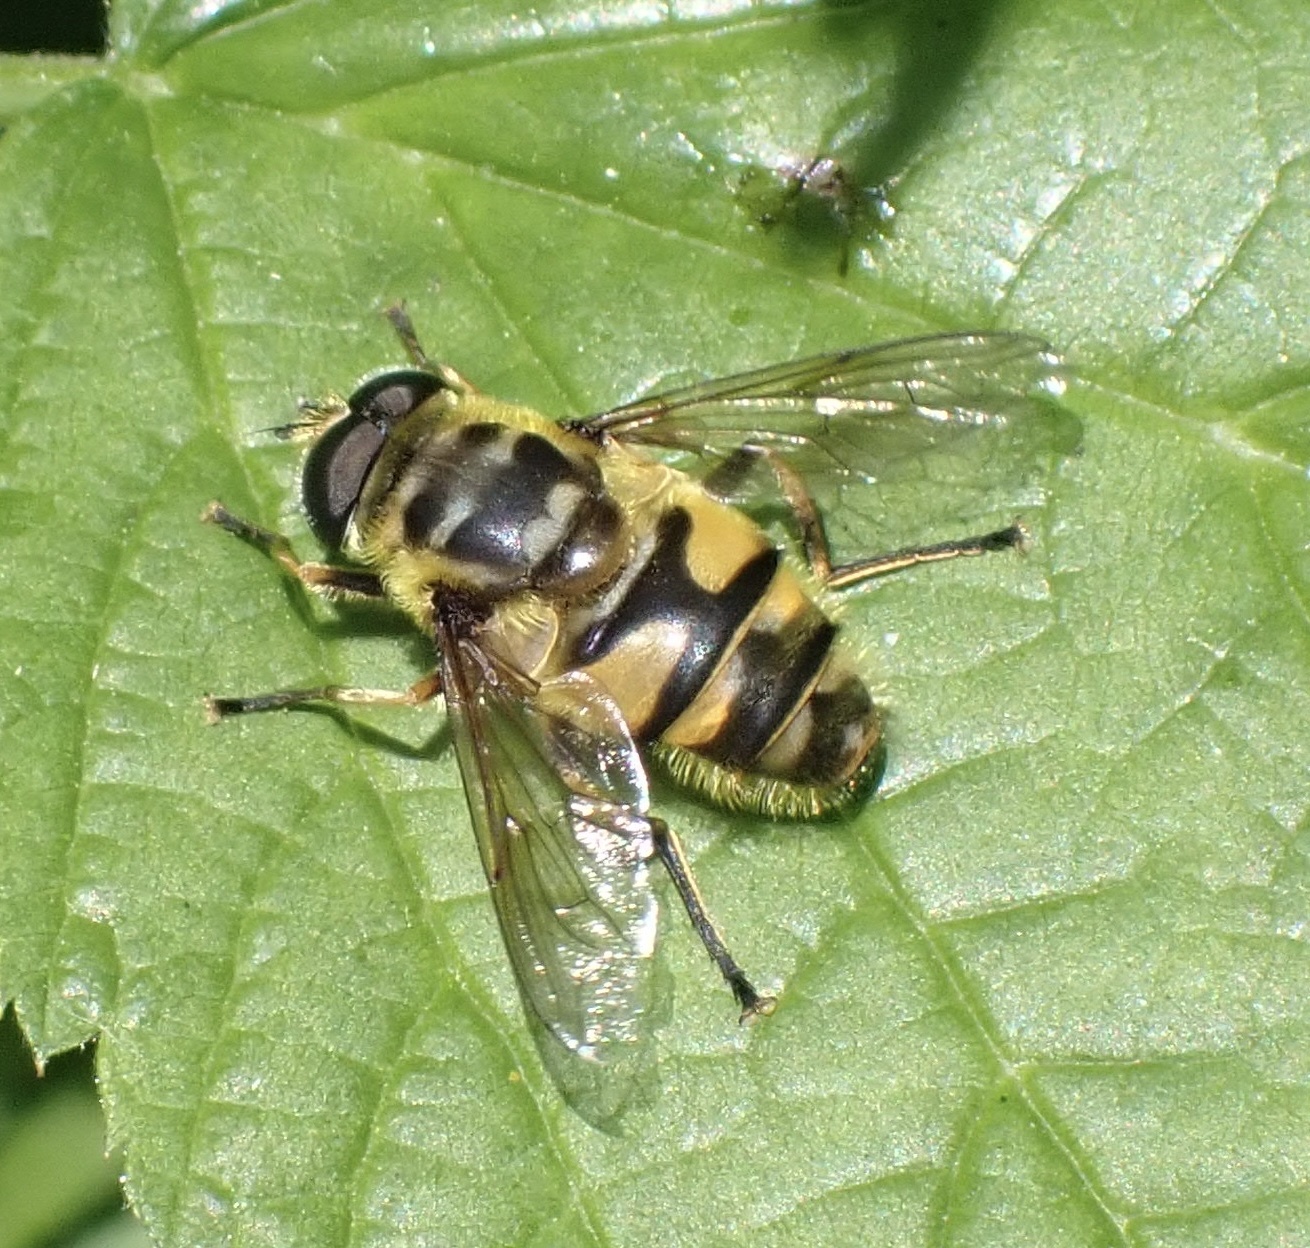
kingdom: Animalia
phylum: Arthropoda
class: Insecta
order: Diptera
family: Syrphidae
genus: Myathropa
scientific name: Myathropa florea
